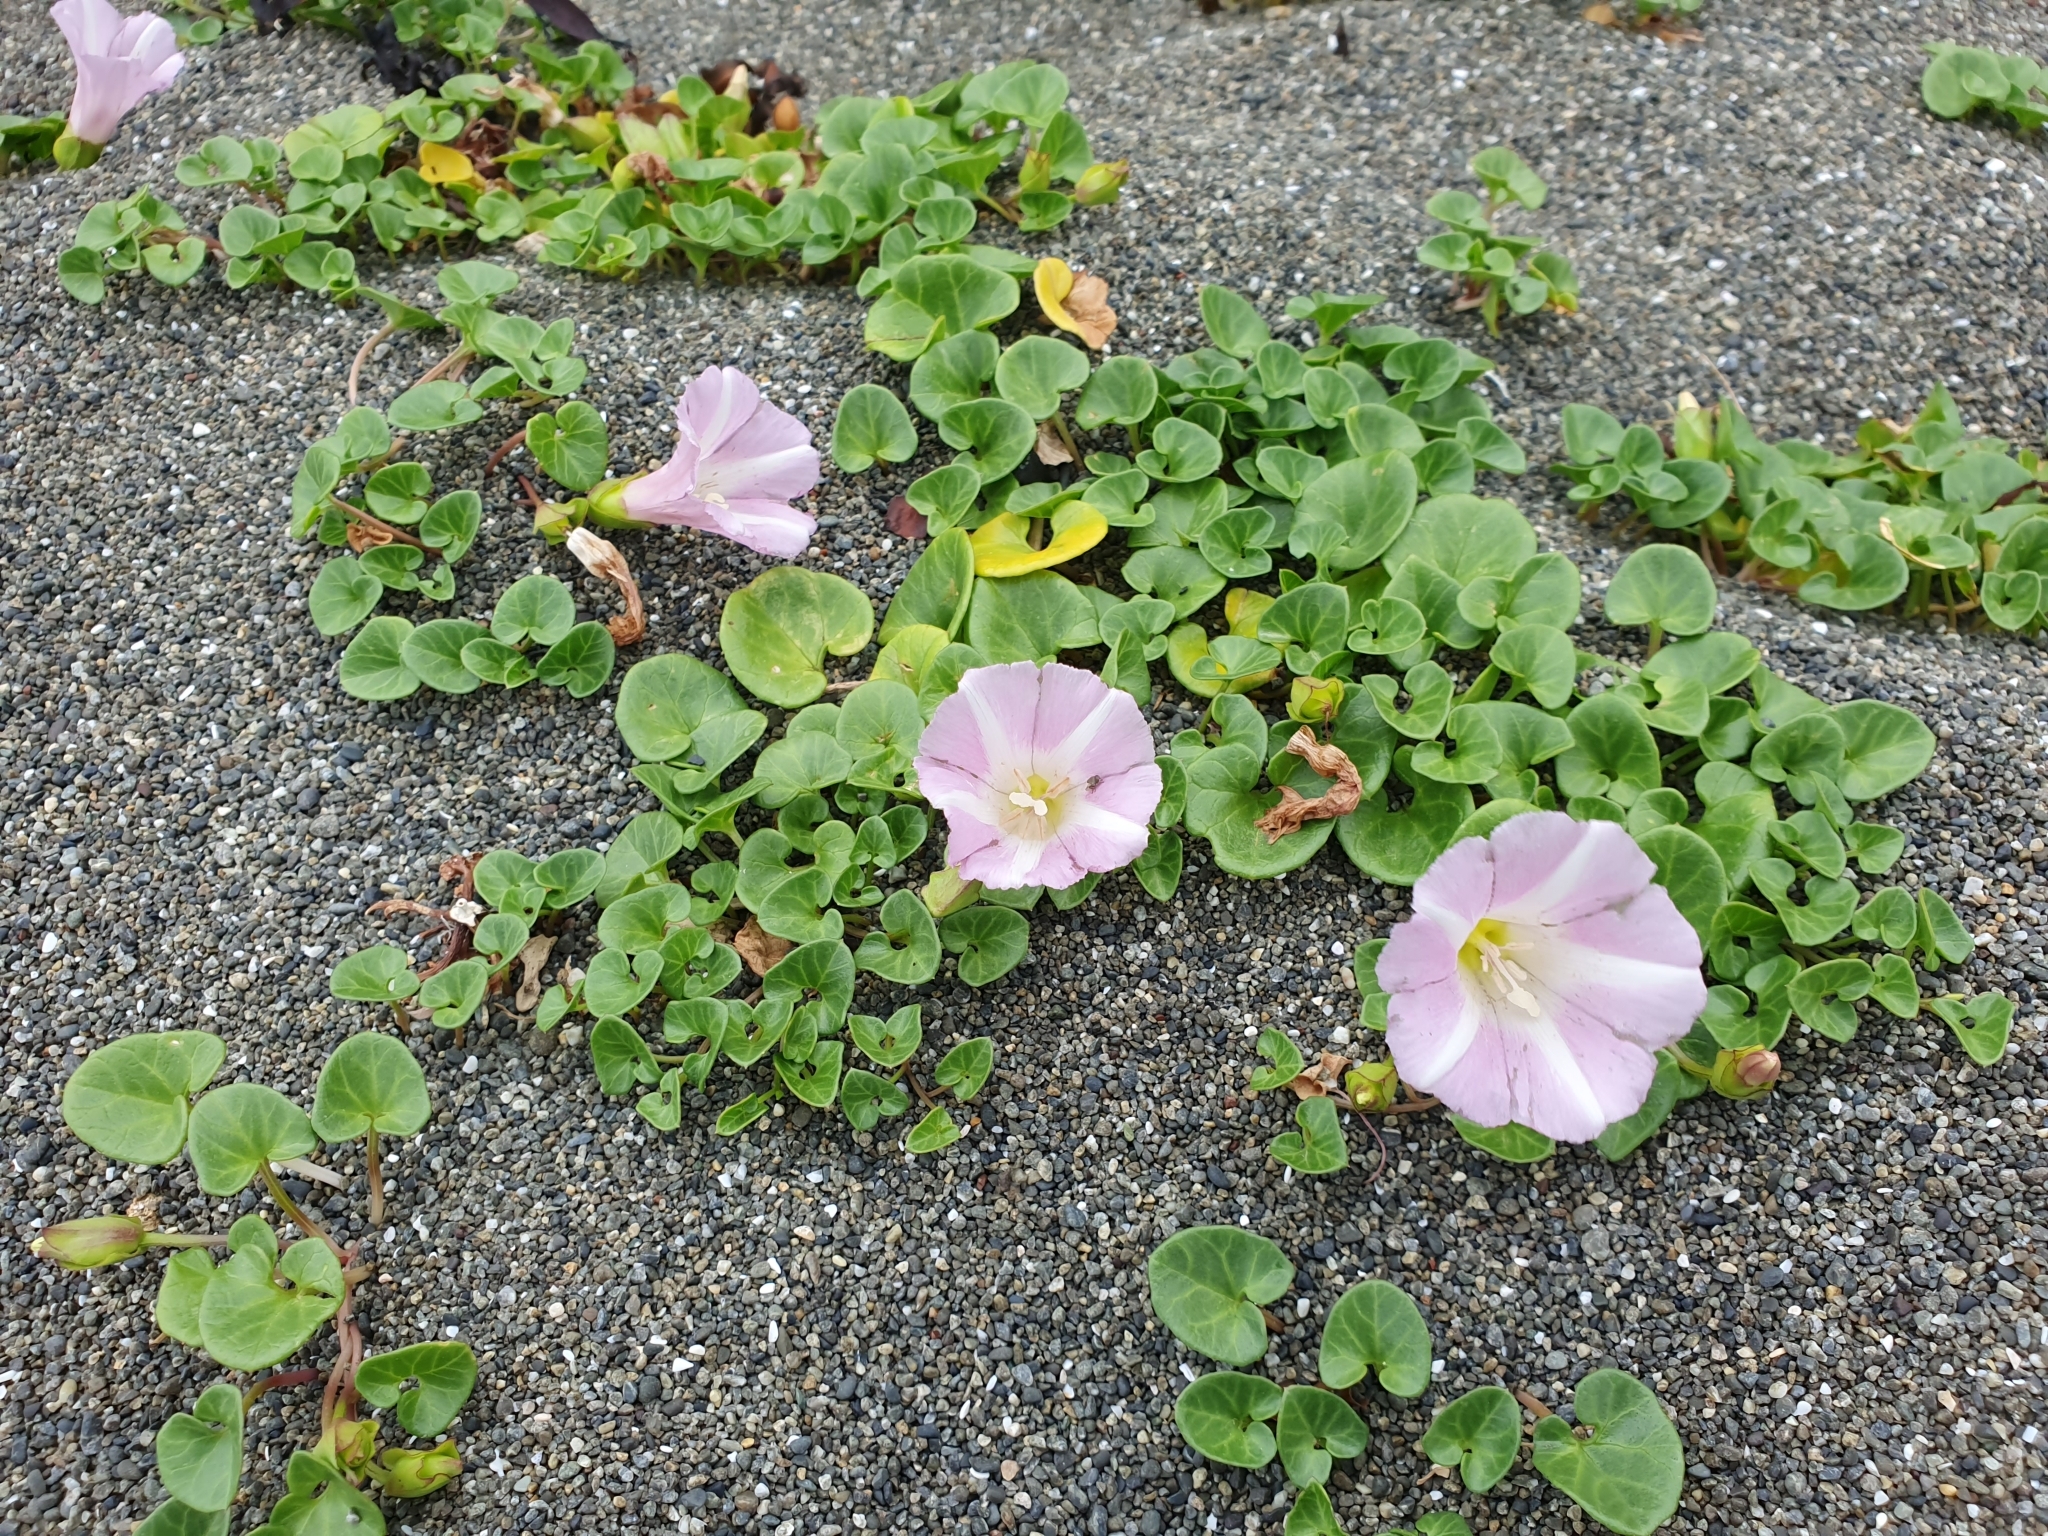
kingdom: Plantae
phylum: Tracheophyta
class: Magnoliopsida
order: Solanales
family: Convolvulaceae
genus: Calystegia
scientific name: Calystegia soldanella
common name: Sea bindweed
